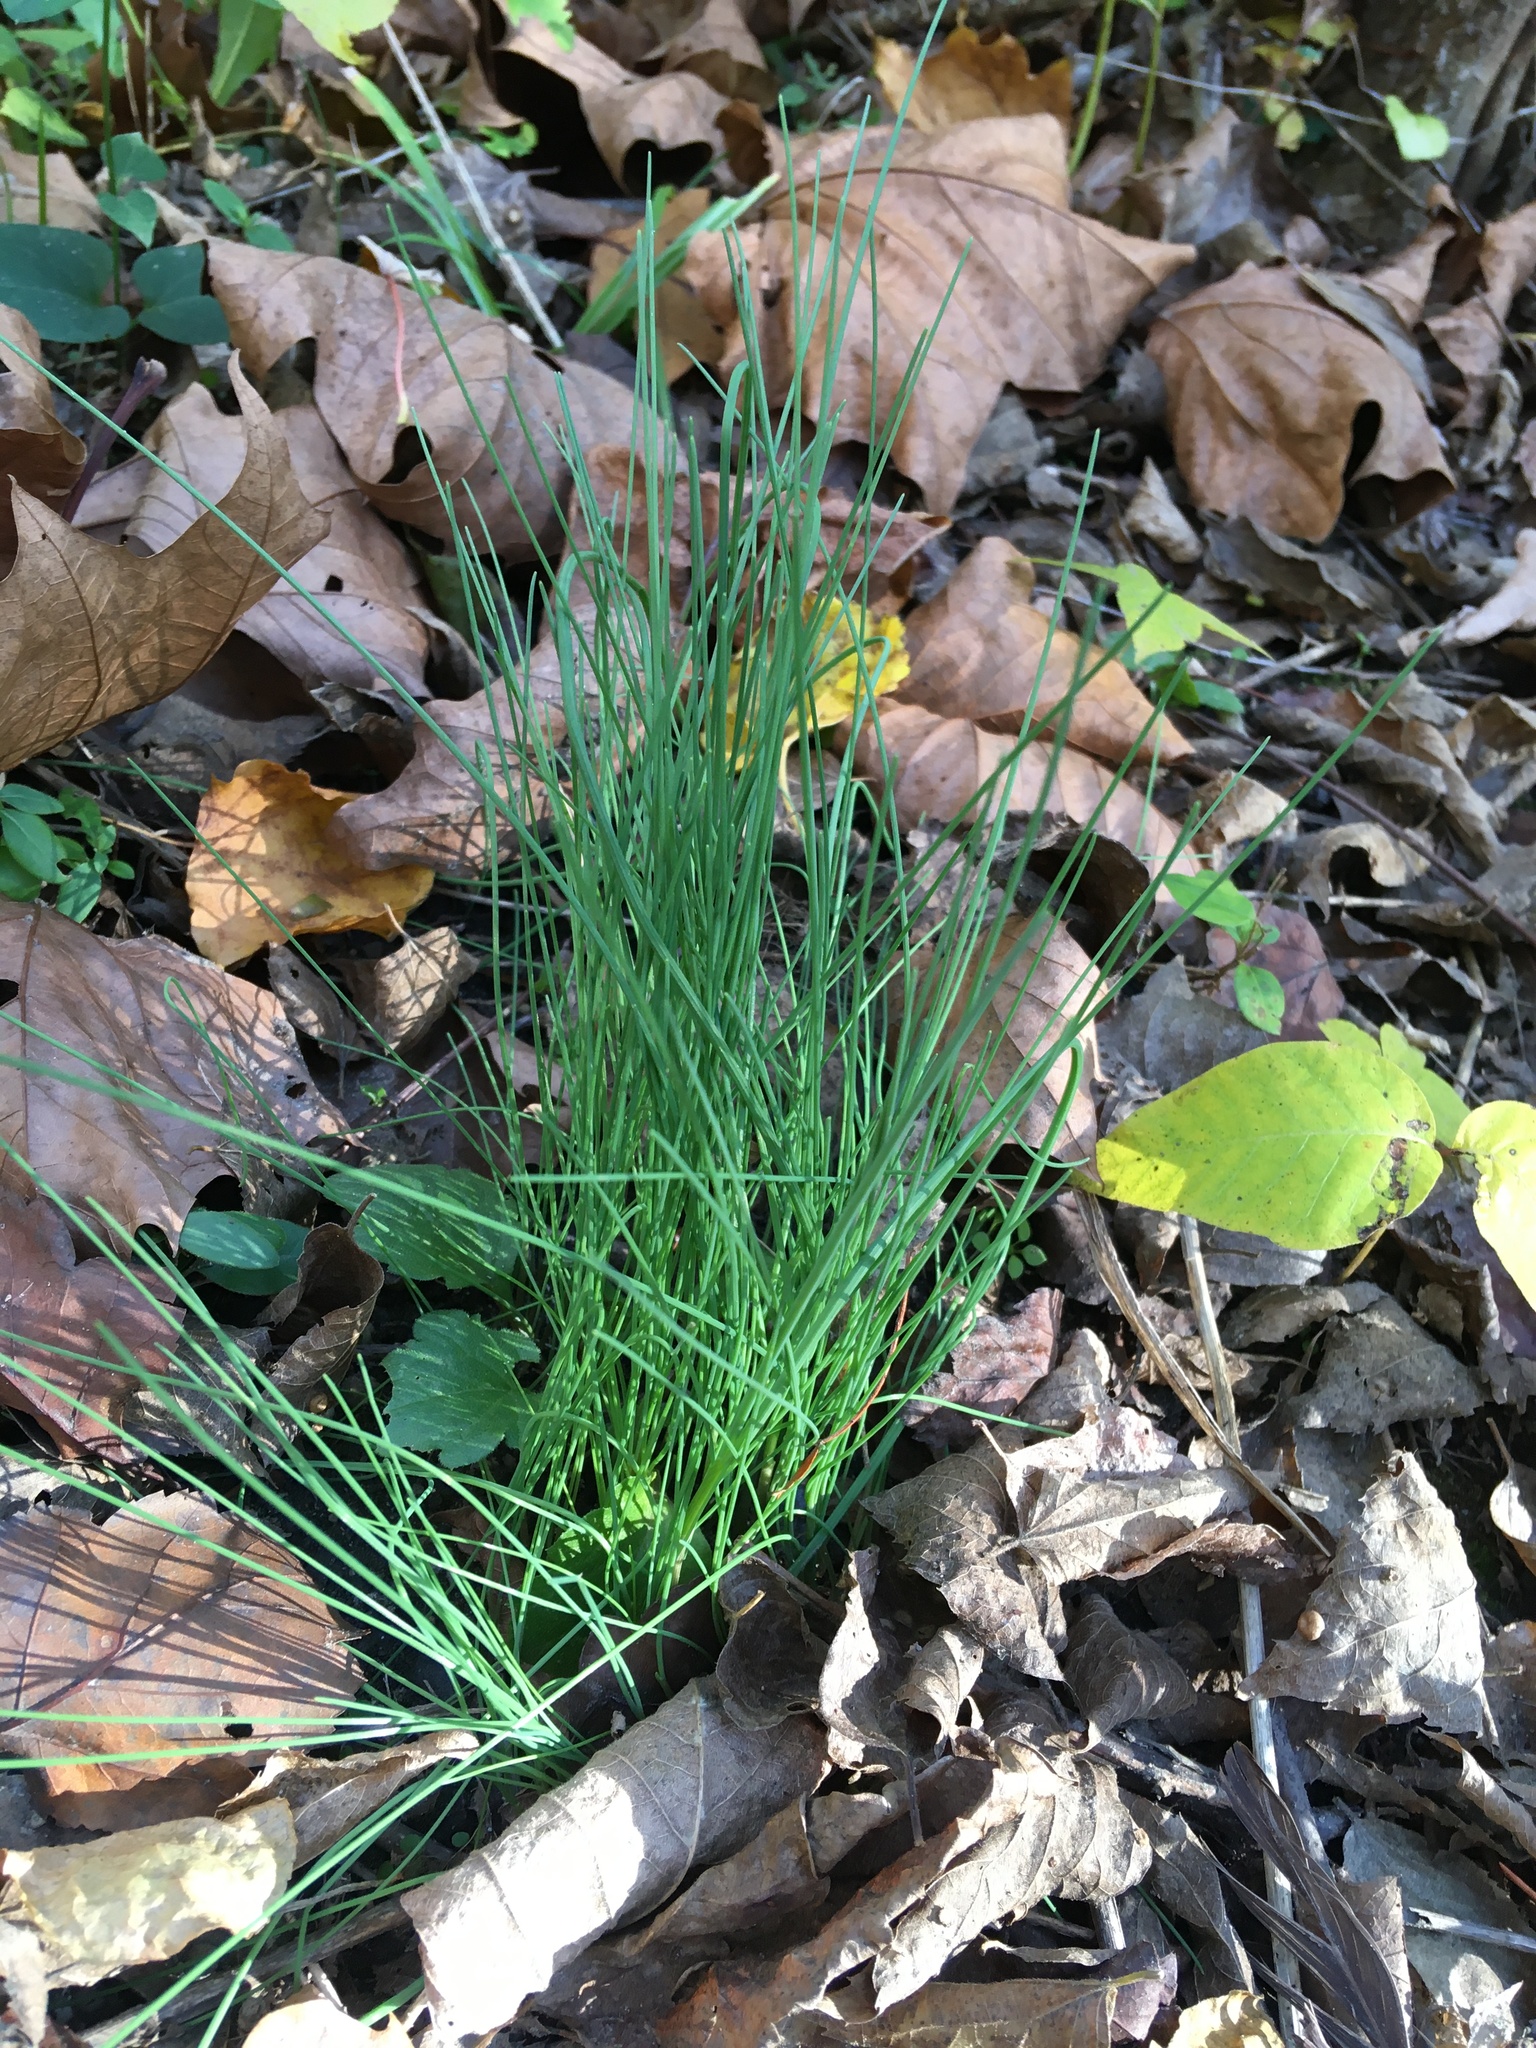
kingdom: Plantae
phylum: Tracheophyta
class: Liliopsida
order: Asparagales
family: Amaryllidaceae
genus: Allium
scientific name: Allium vineale
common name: Crow garlic
